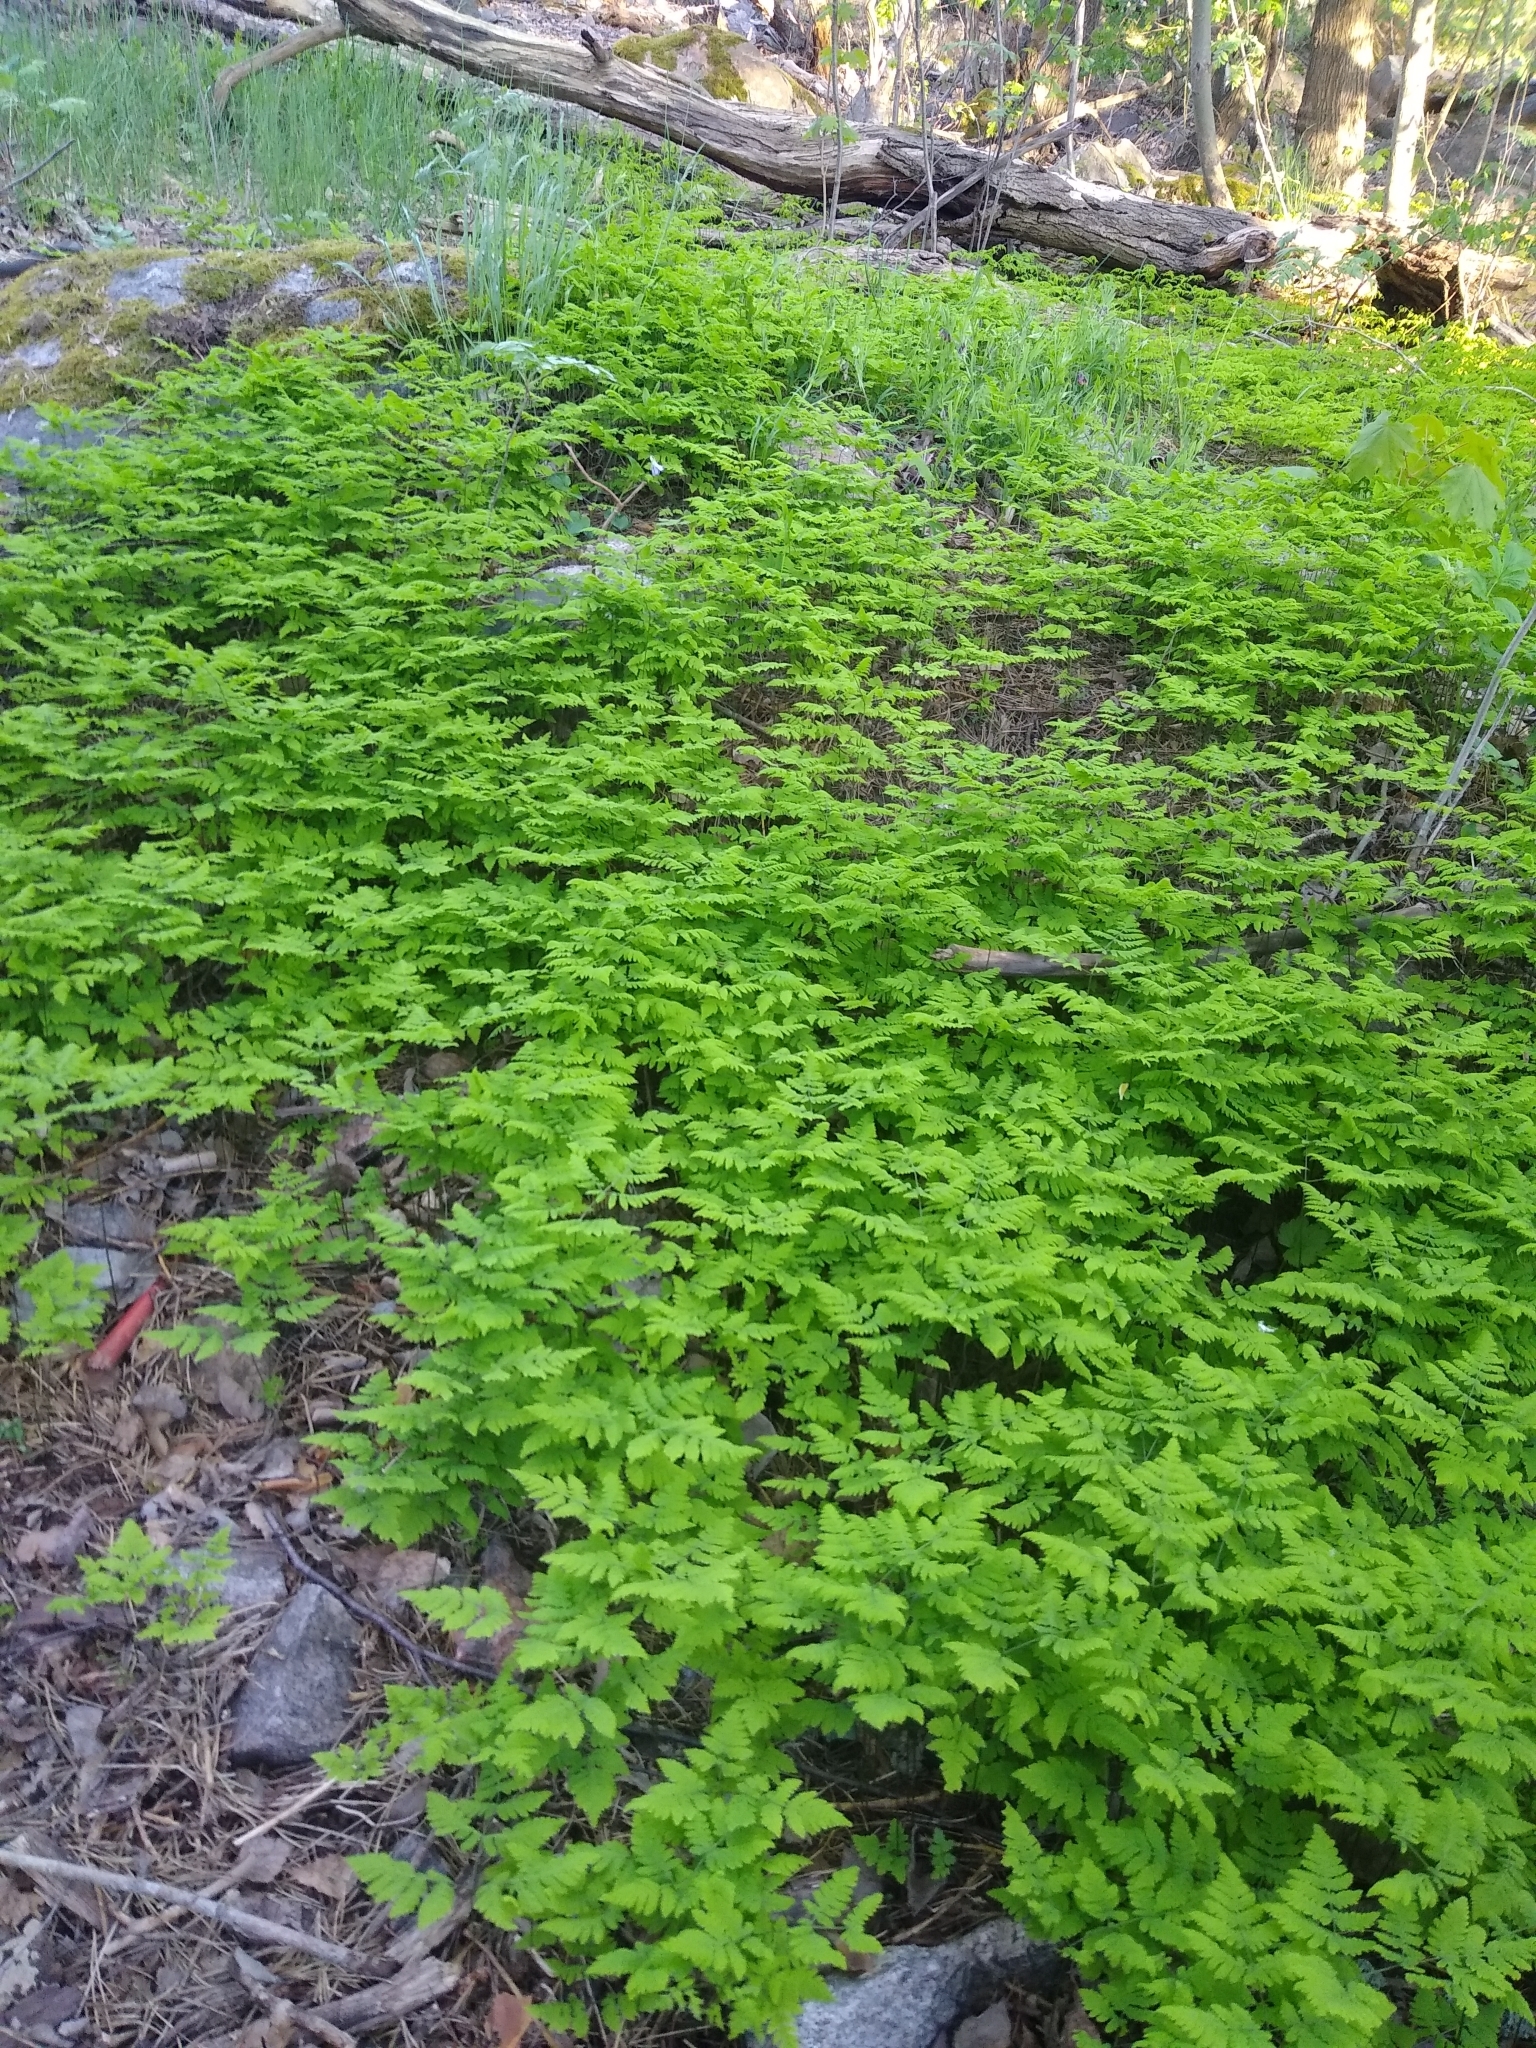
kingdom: Plantae
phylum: Tracheophyta
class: Polypodiopsida
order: Polypodiales
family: Cystopteridaceae
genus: Gymnocarpium
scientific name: Gymnocarpium dryopteris
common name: Oak fern
